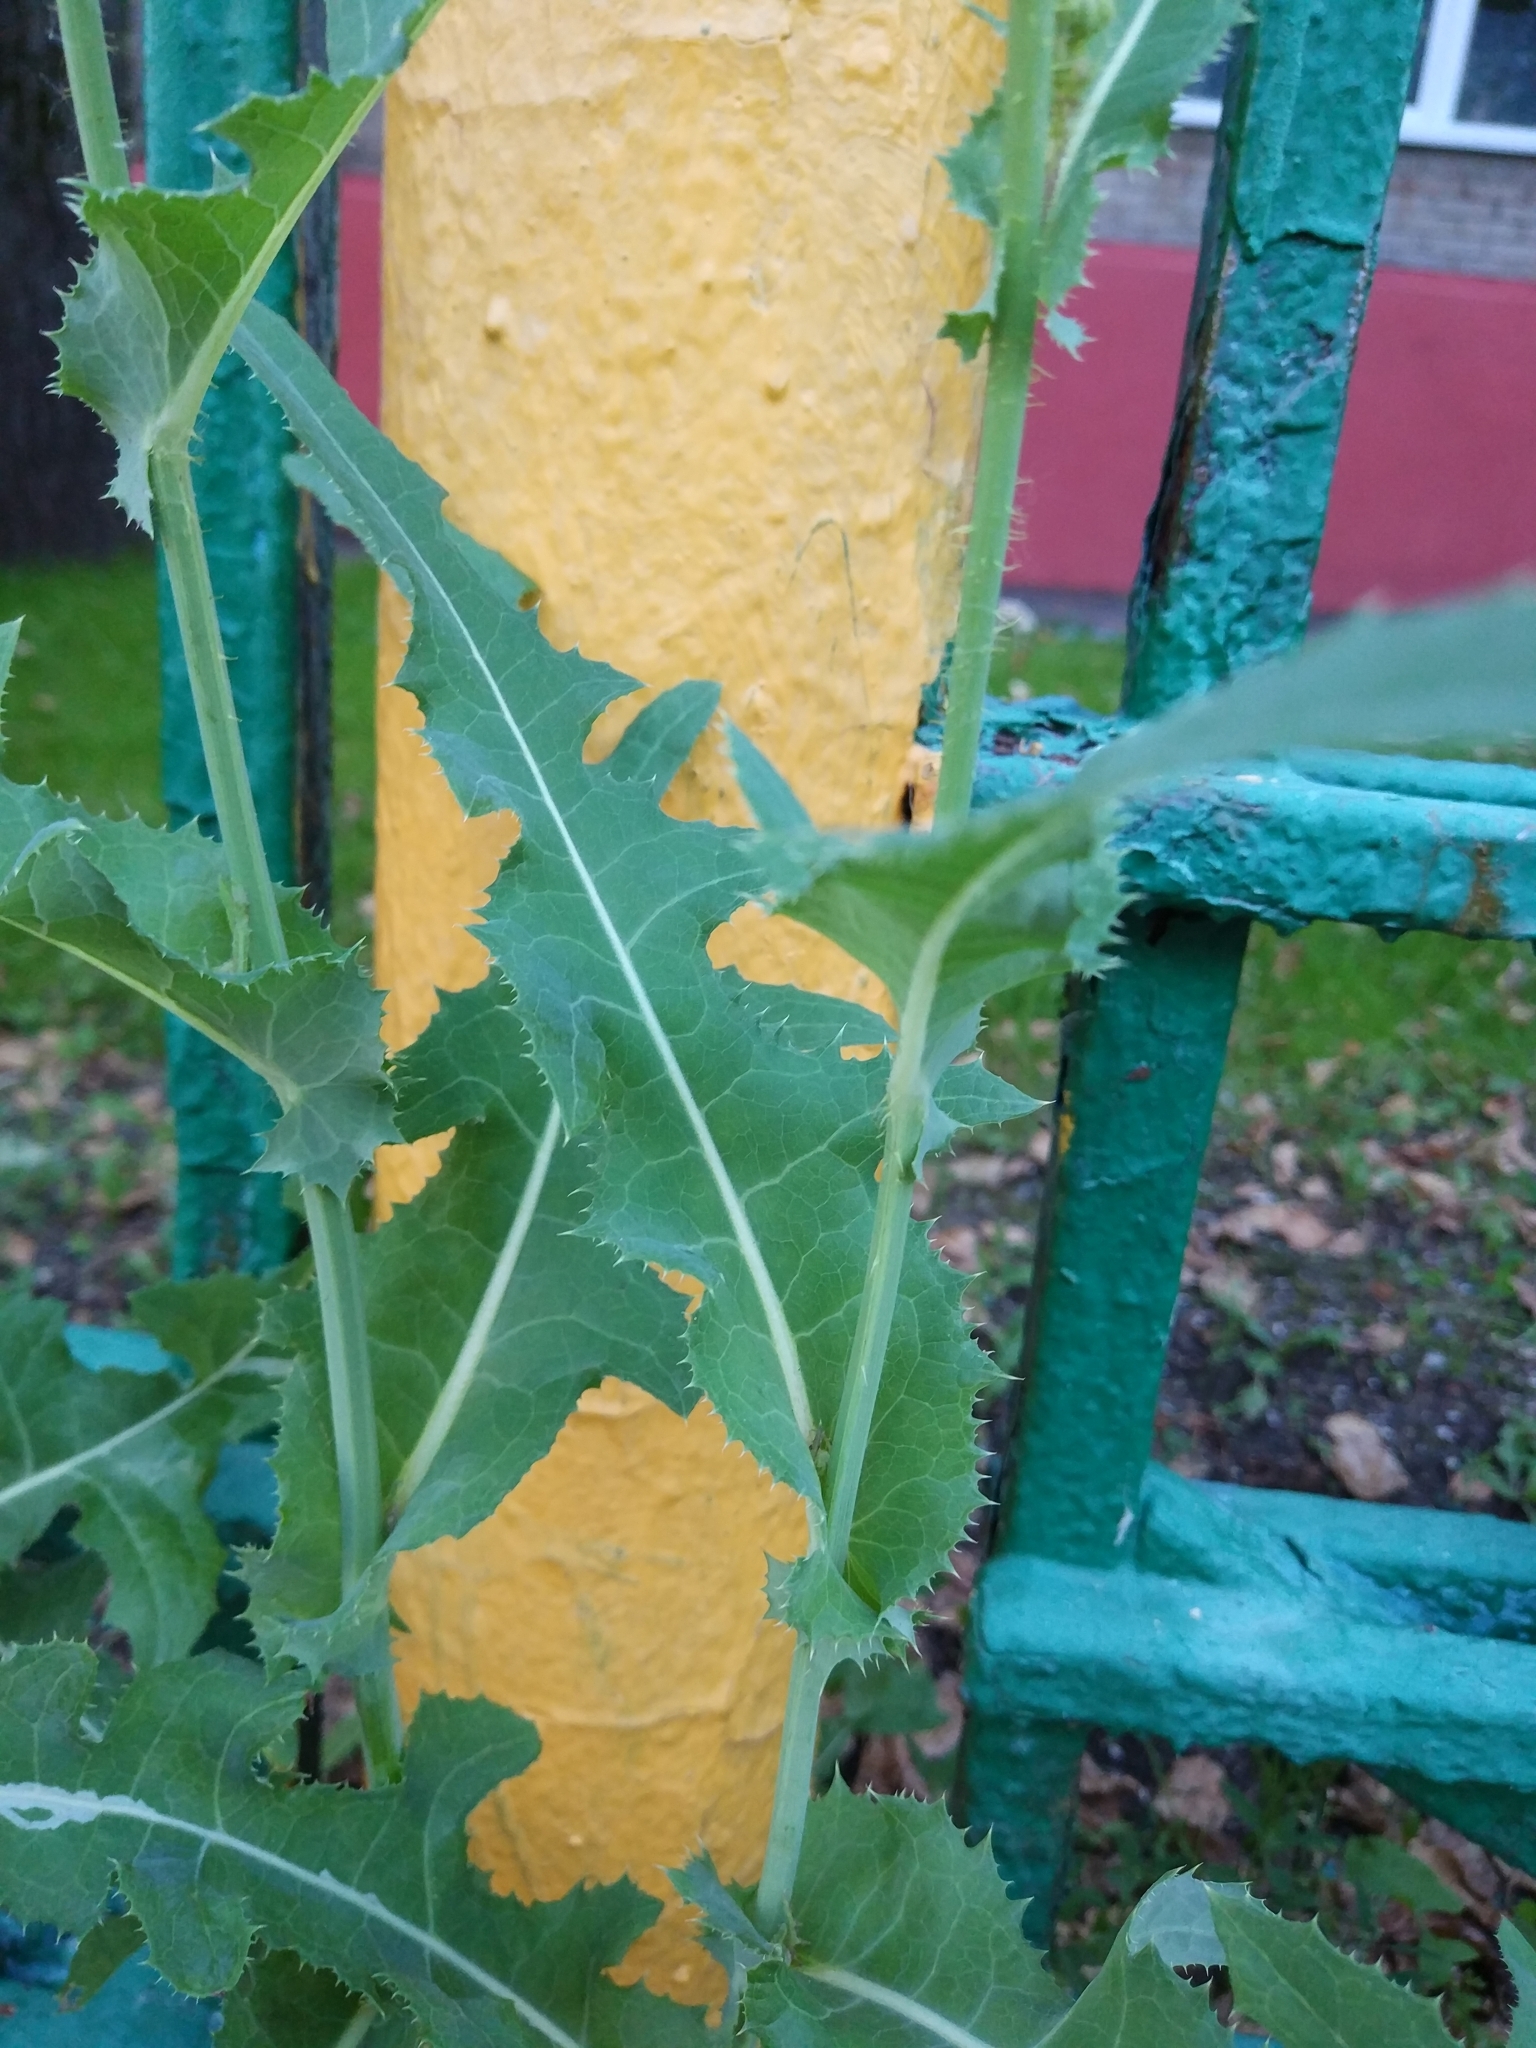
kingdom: Plantae
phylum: Tracheophyta
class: Magnoliopsida
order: Asterales
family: Asteraceae
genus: Sonchus
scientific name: Sonchus arvensis
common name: Perennial sow-thistle
